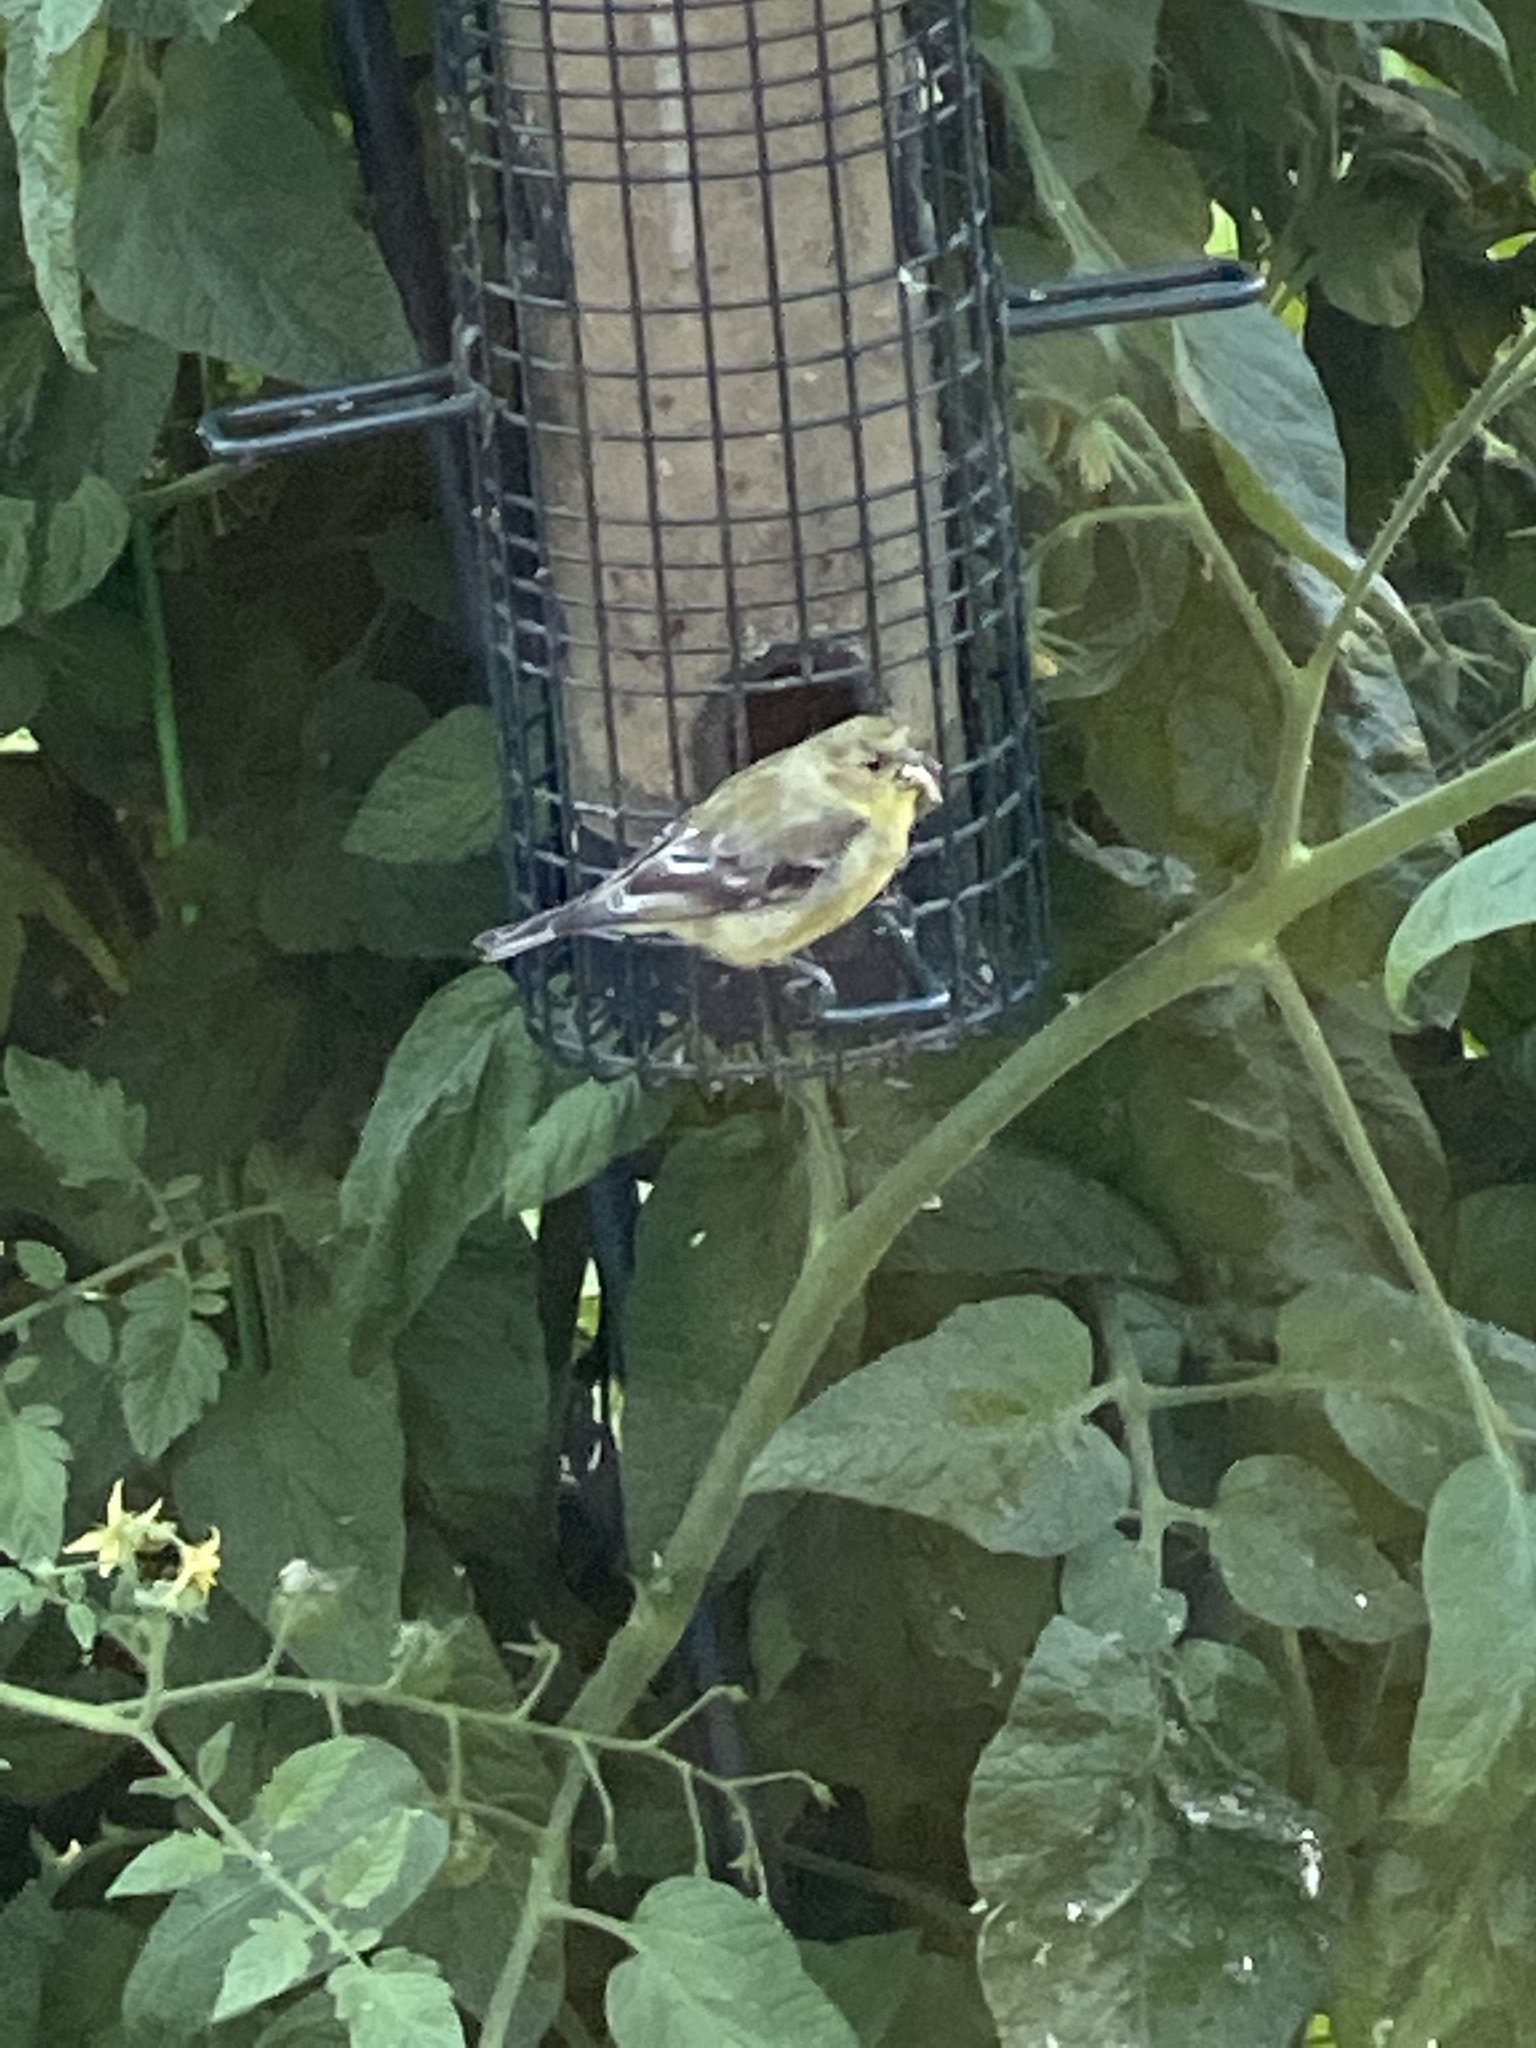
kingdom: Animalia
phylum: Chordata
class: Aves
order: Passeriformes
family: Fringillidae
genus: Spinus
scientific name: Spinus psaltria
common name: Lesser goldfinch
